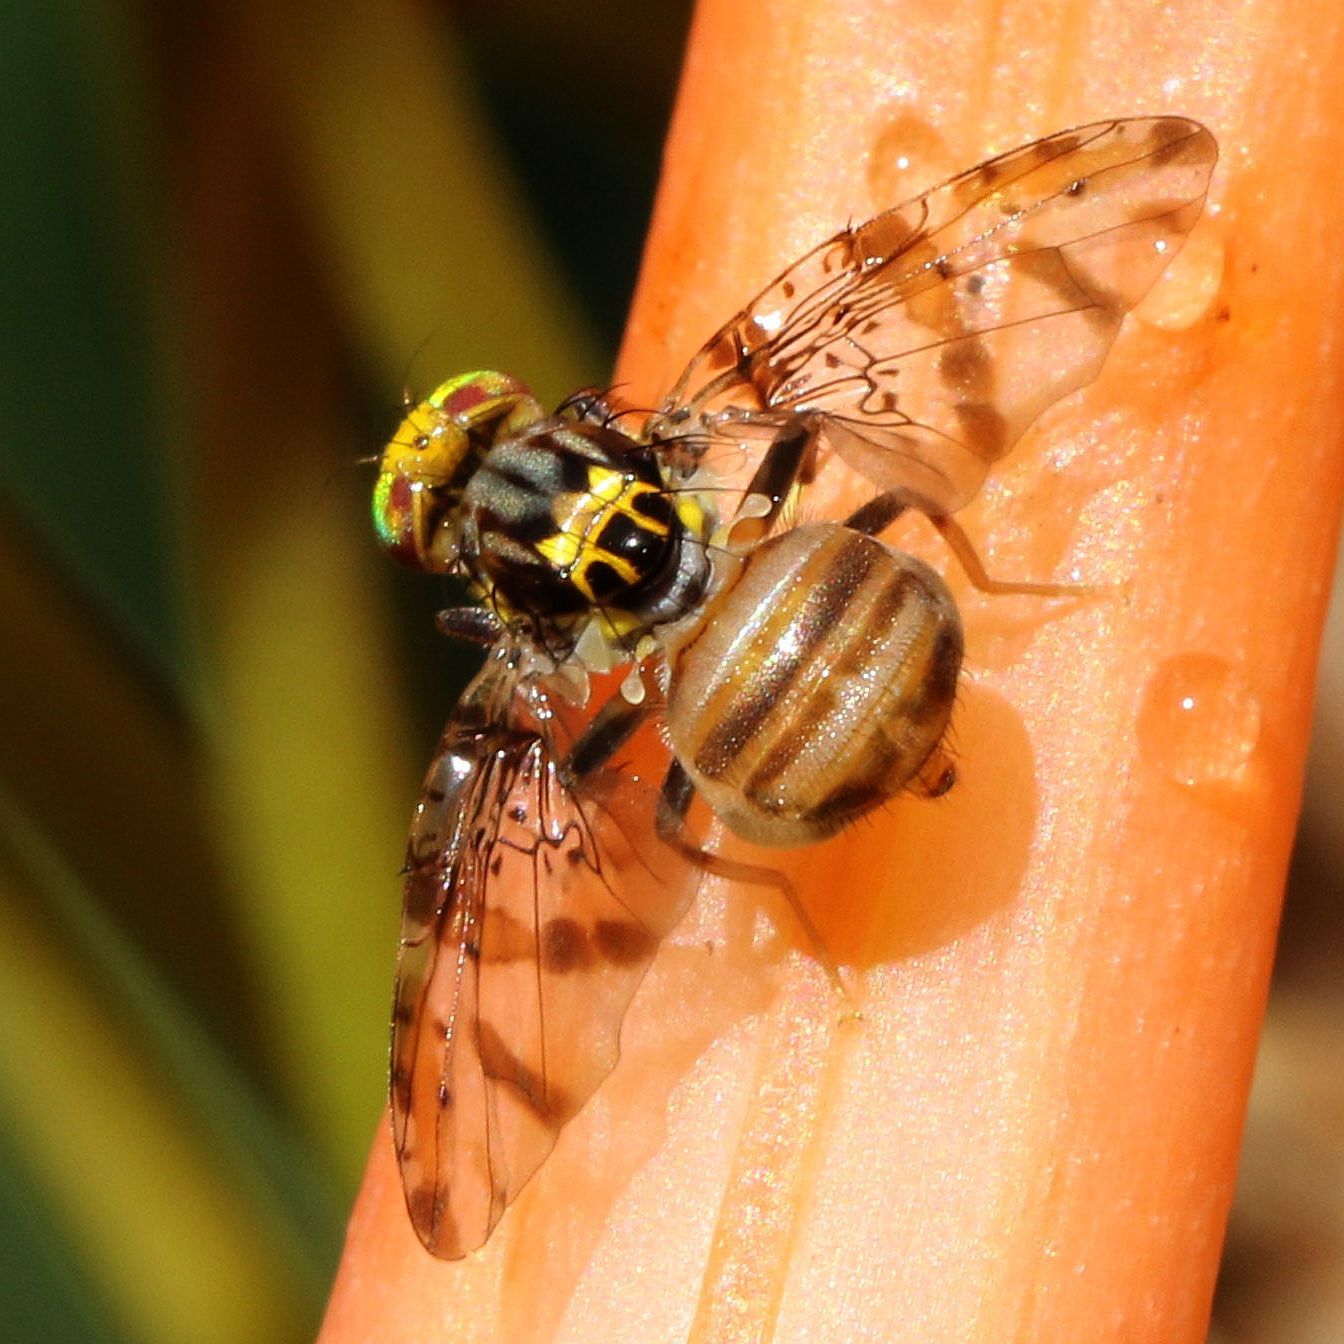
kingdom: Animalia
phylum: Arthropoda
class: Insecta
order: Diptera
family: Tephritidae
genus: Ceratitis
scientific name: Ceratitis
